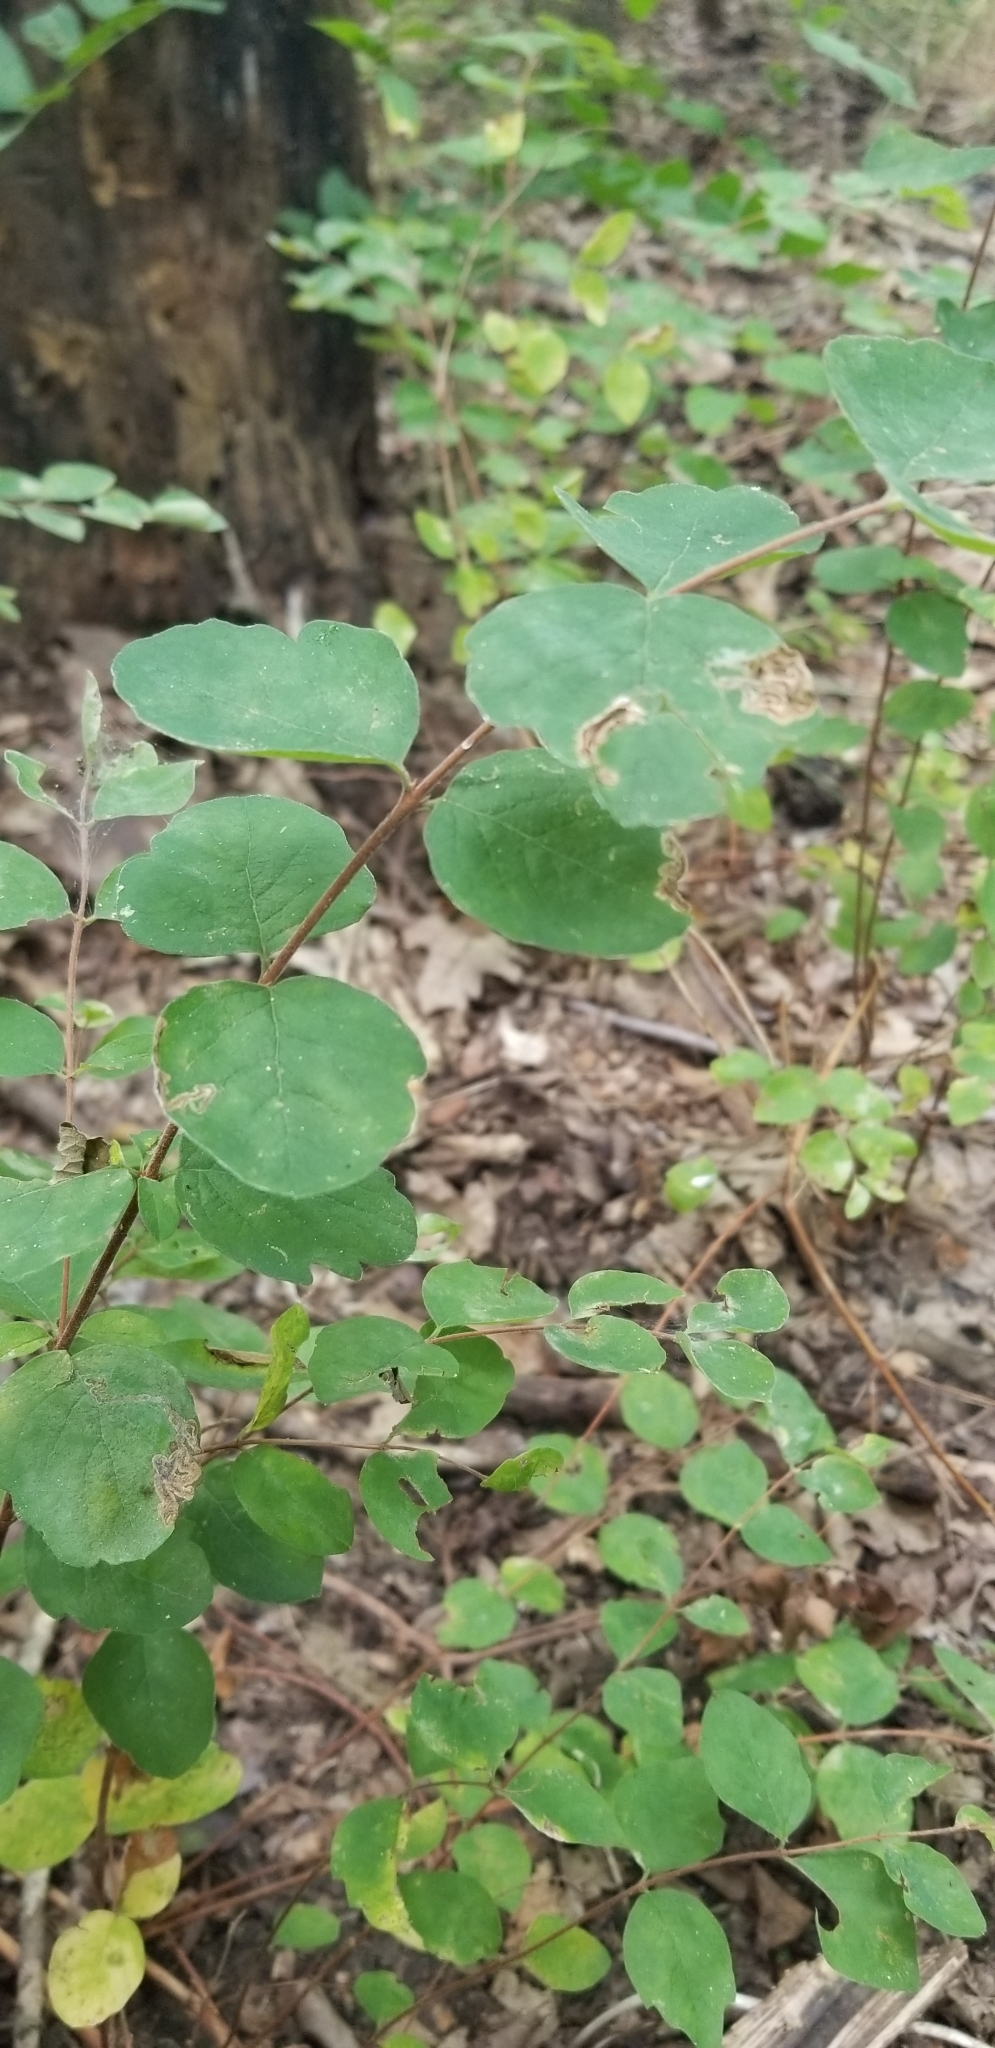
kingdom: Plantae
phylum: Tracheophyta
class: Magnoliopsida
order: Dipsacales
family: Caprifoliaceae
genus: Symphoricarpos
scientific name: Symphoricarpos orbiculatus
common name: Coralberry
